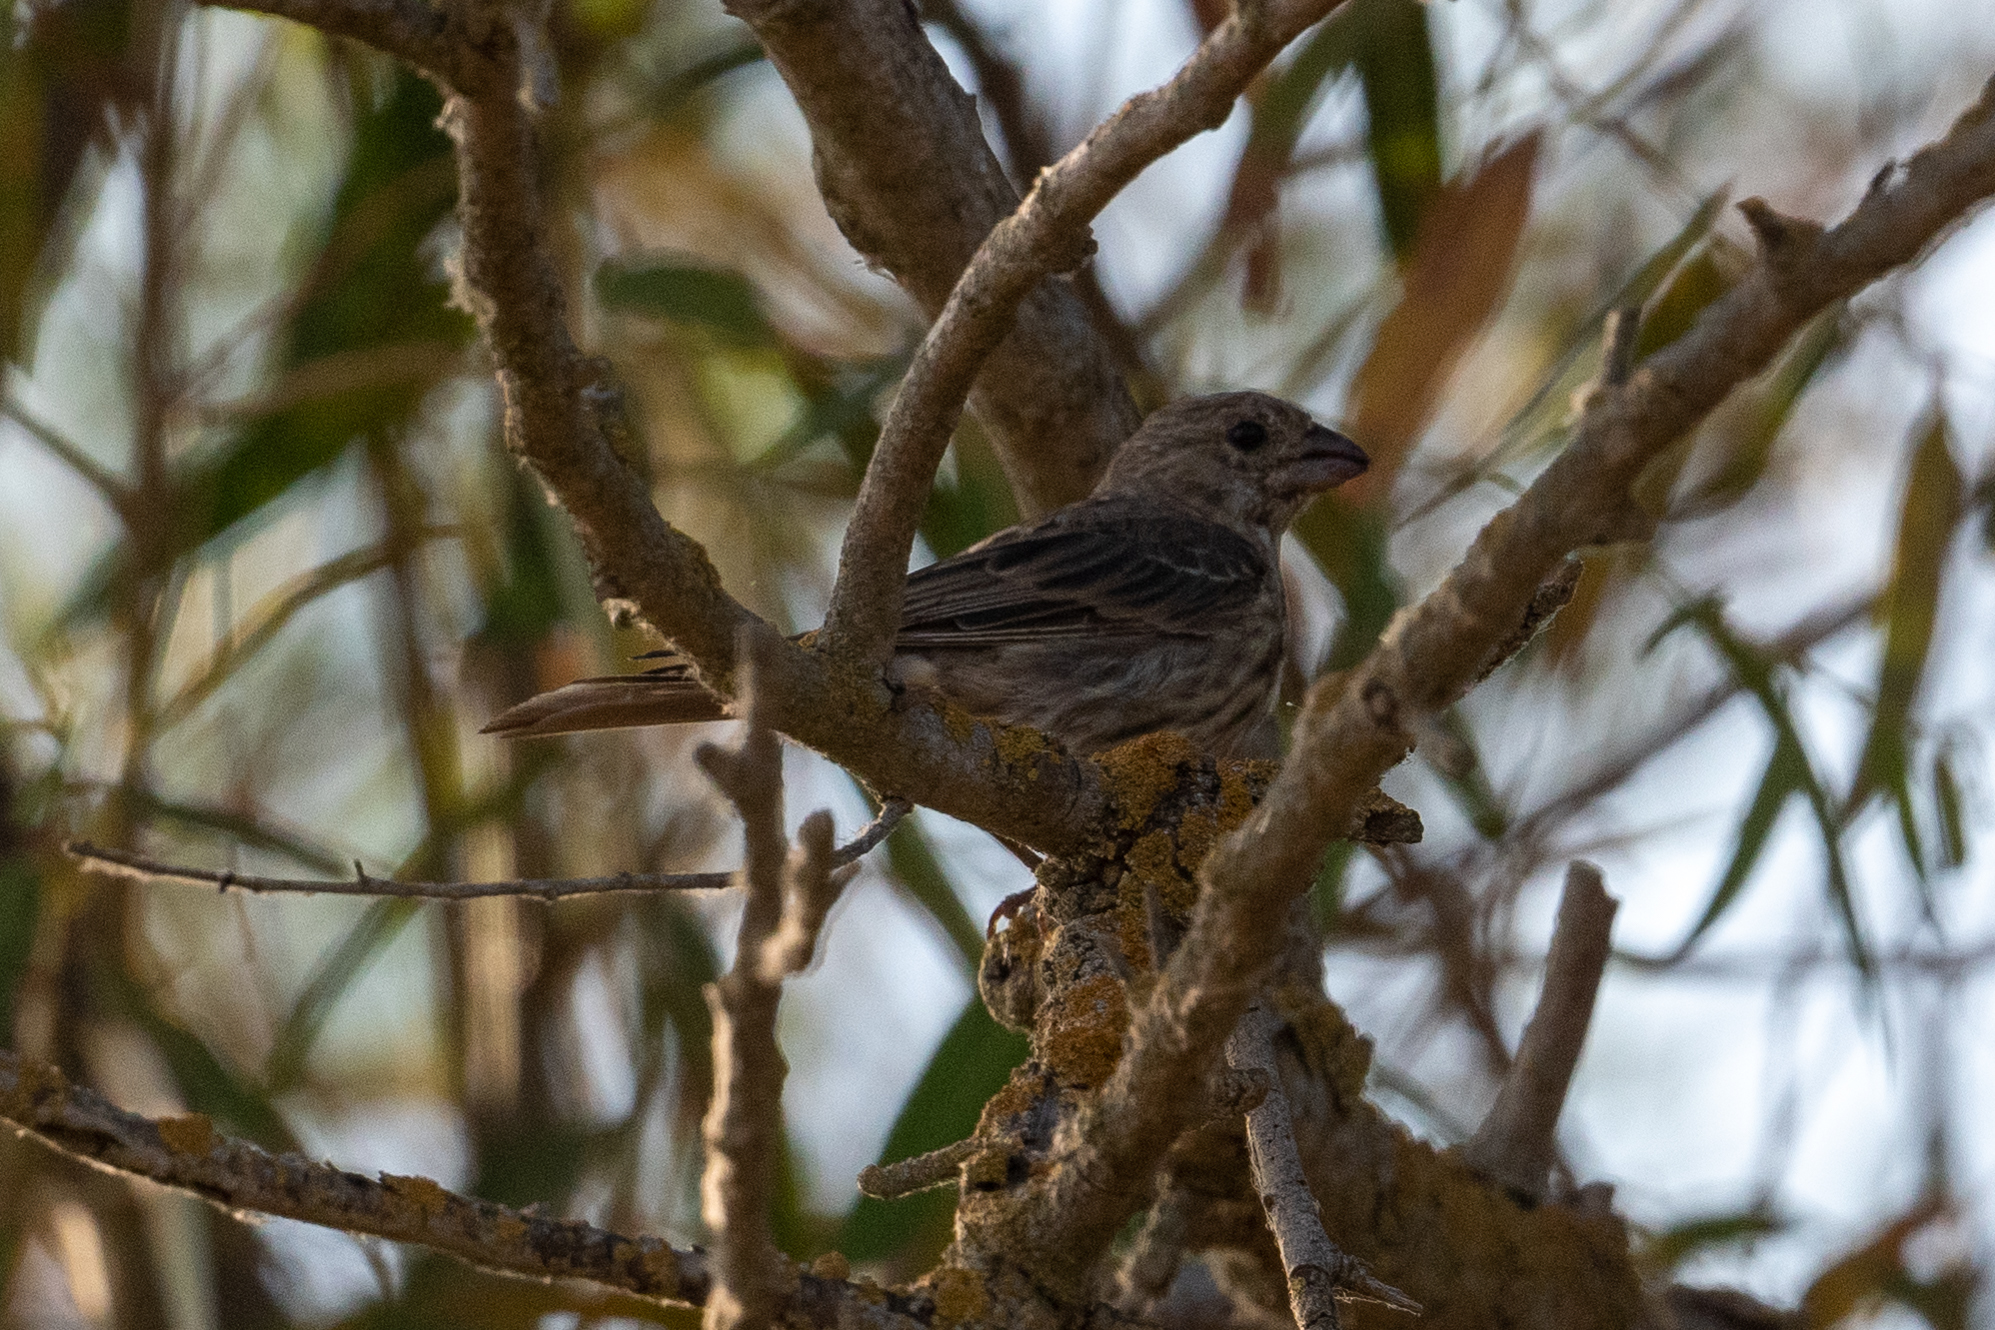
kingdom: Animalia
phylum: Chordata
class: Aves
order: Passeriformes
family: Fringillidae
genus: Haemorhous
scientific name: Haemorhous mexicanus
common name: House finch
